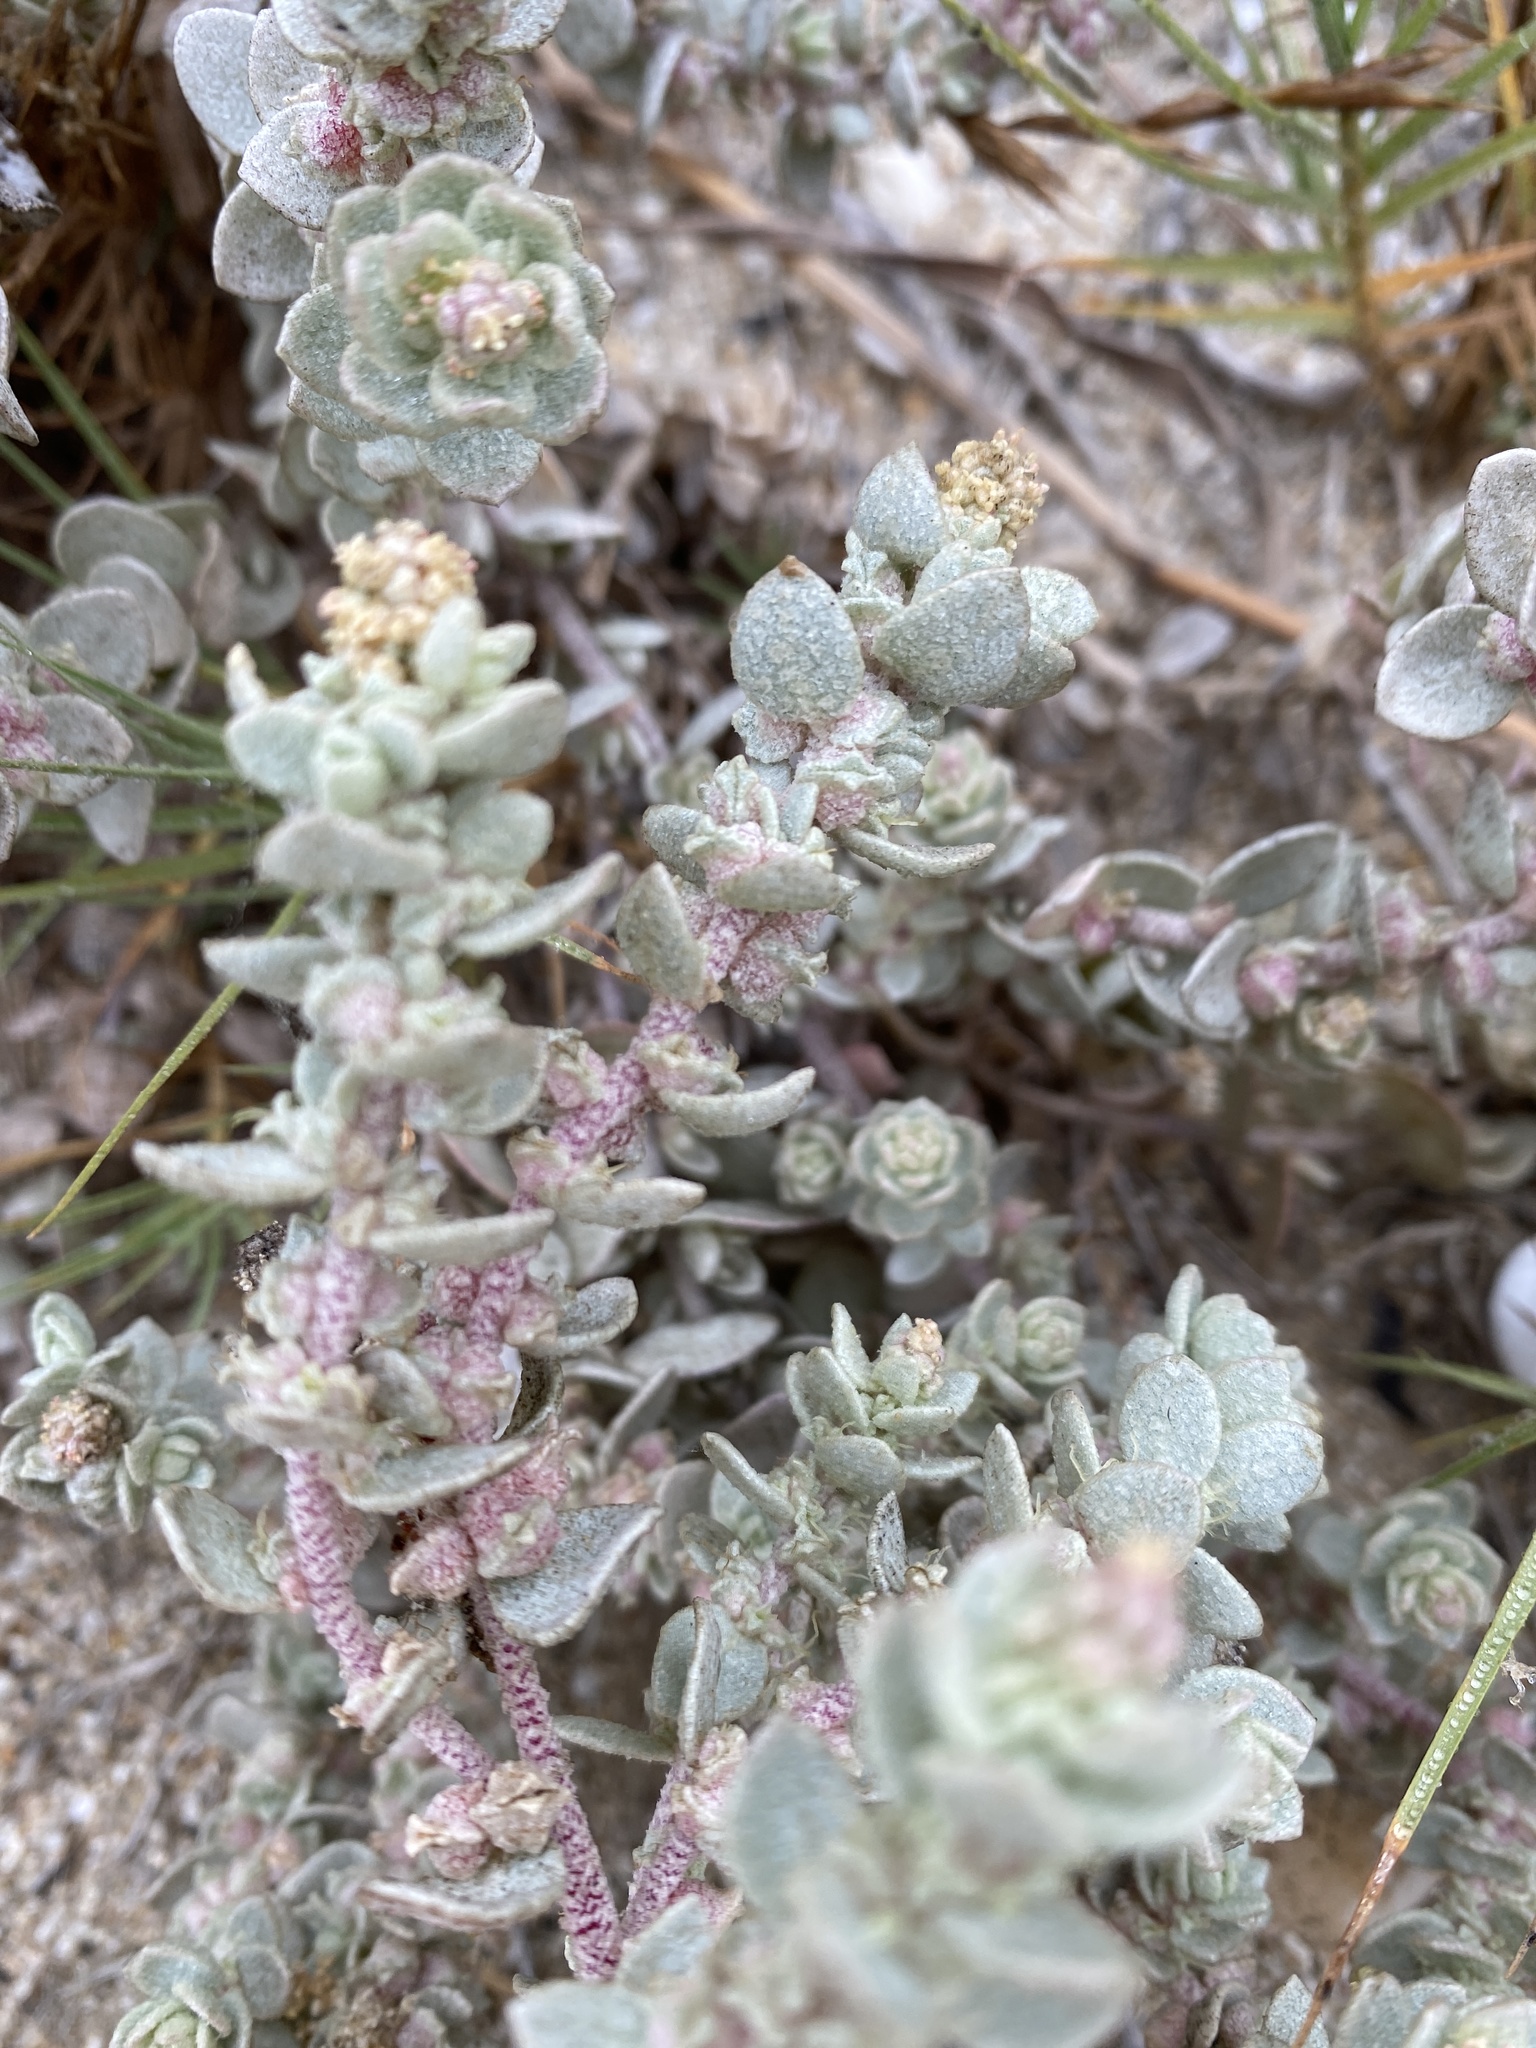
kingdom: Plantae
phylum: Tracheophyta
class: Magnoliopsida
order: Caryophyllales
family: Amaranthaceae
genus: Atriplex
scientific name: Atriplex leucophylla
